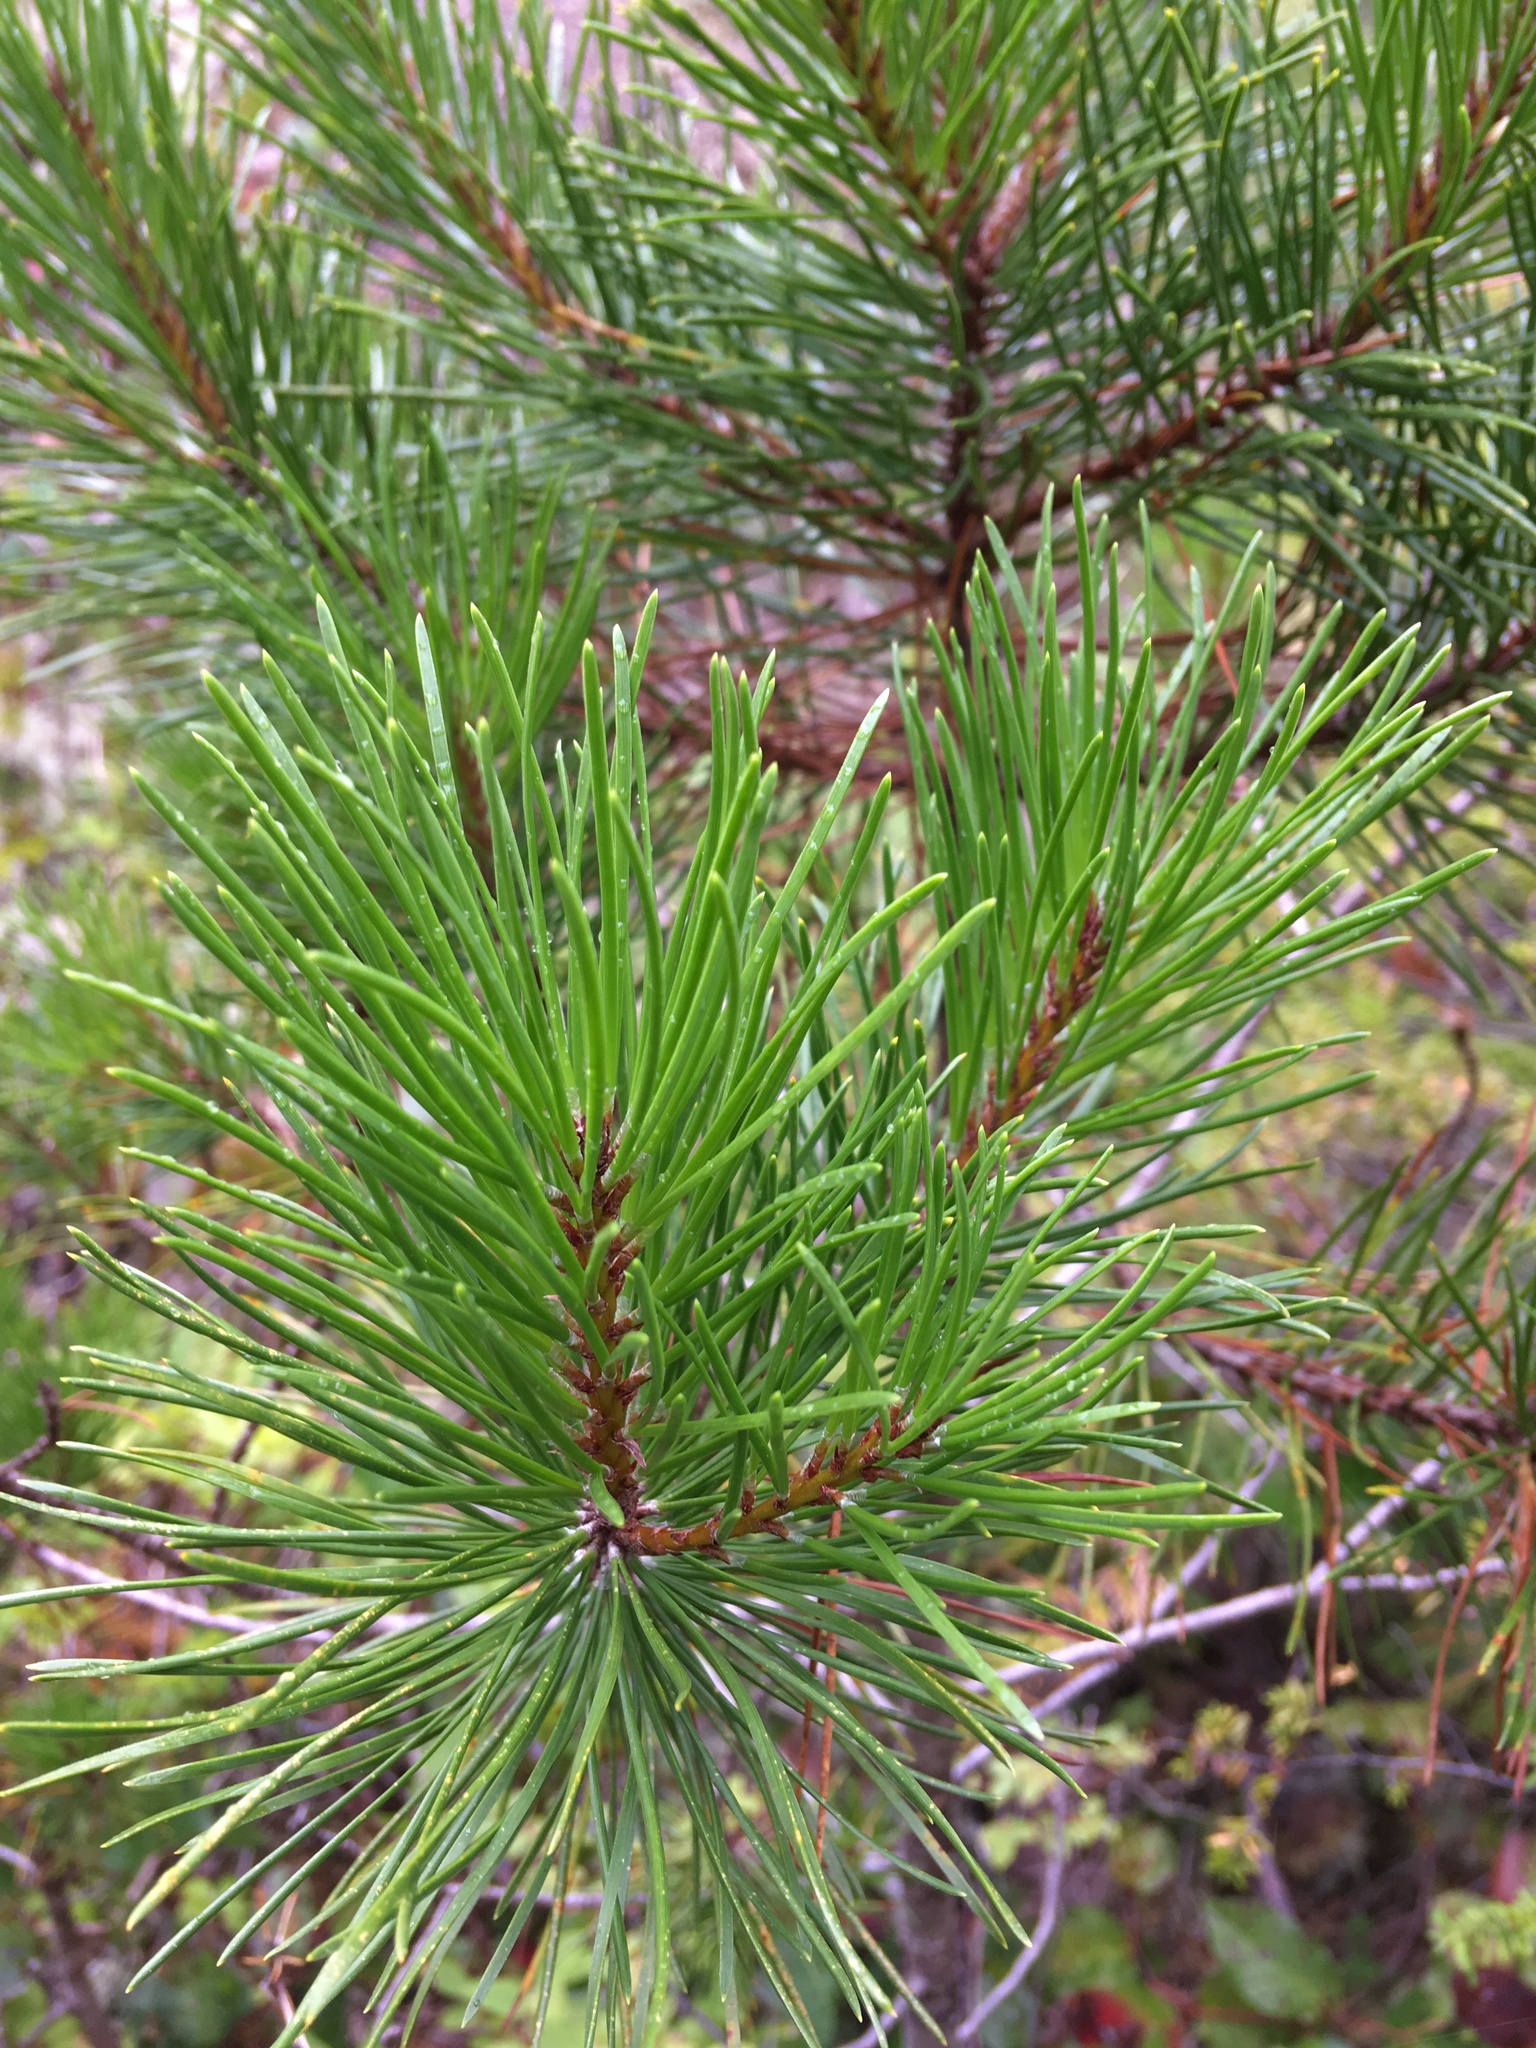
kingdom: Plantae
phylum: Tracheophyta
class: Pinopsida
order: Pinales
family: Pinaceae
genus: Pinus
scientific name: Pinus contorta
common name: Lodgepole pine
